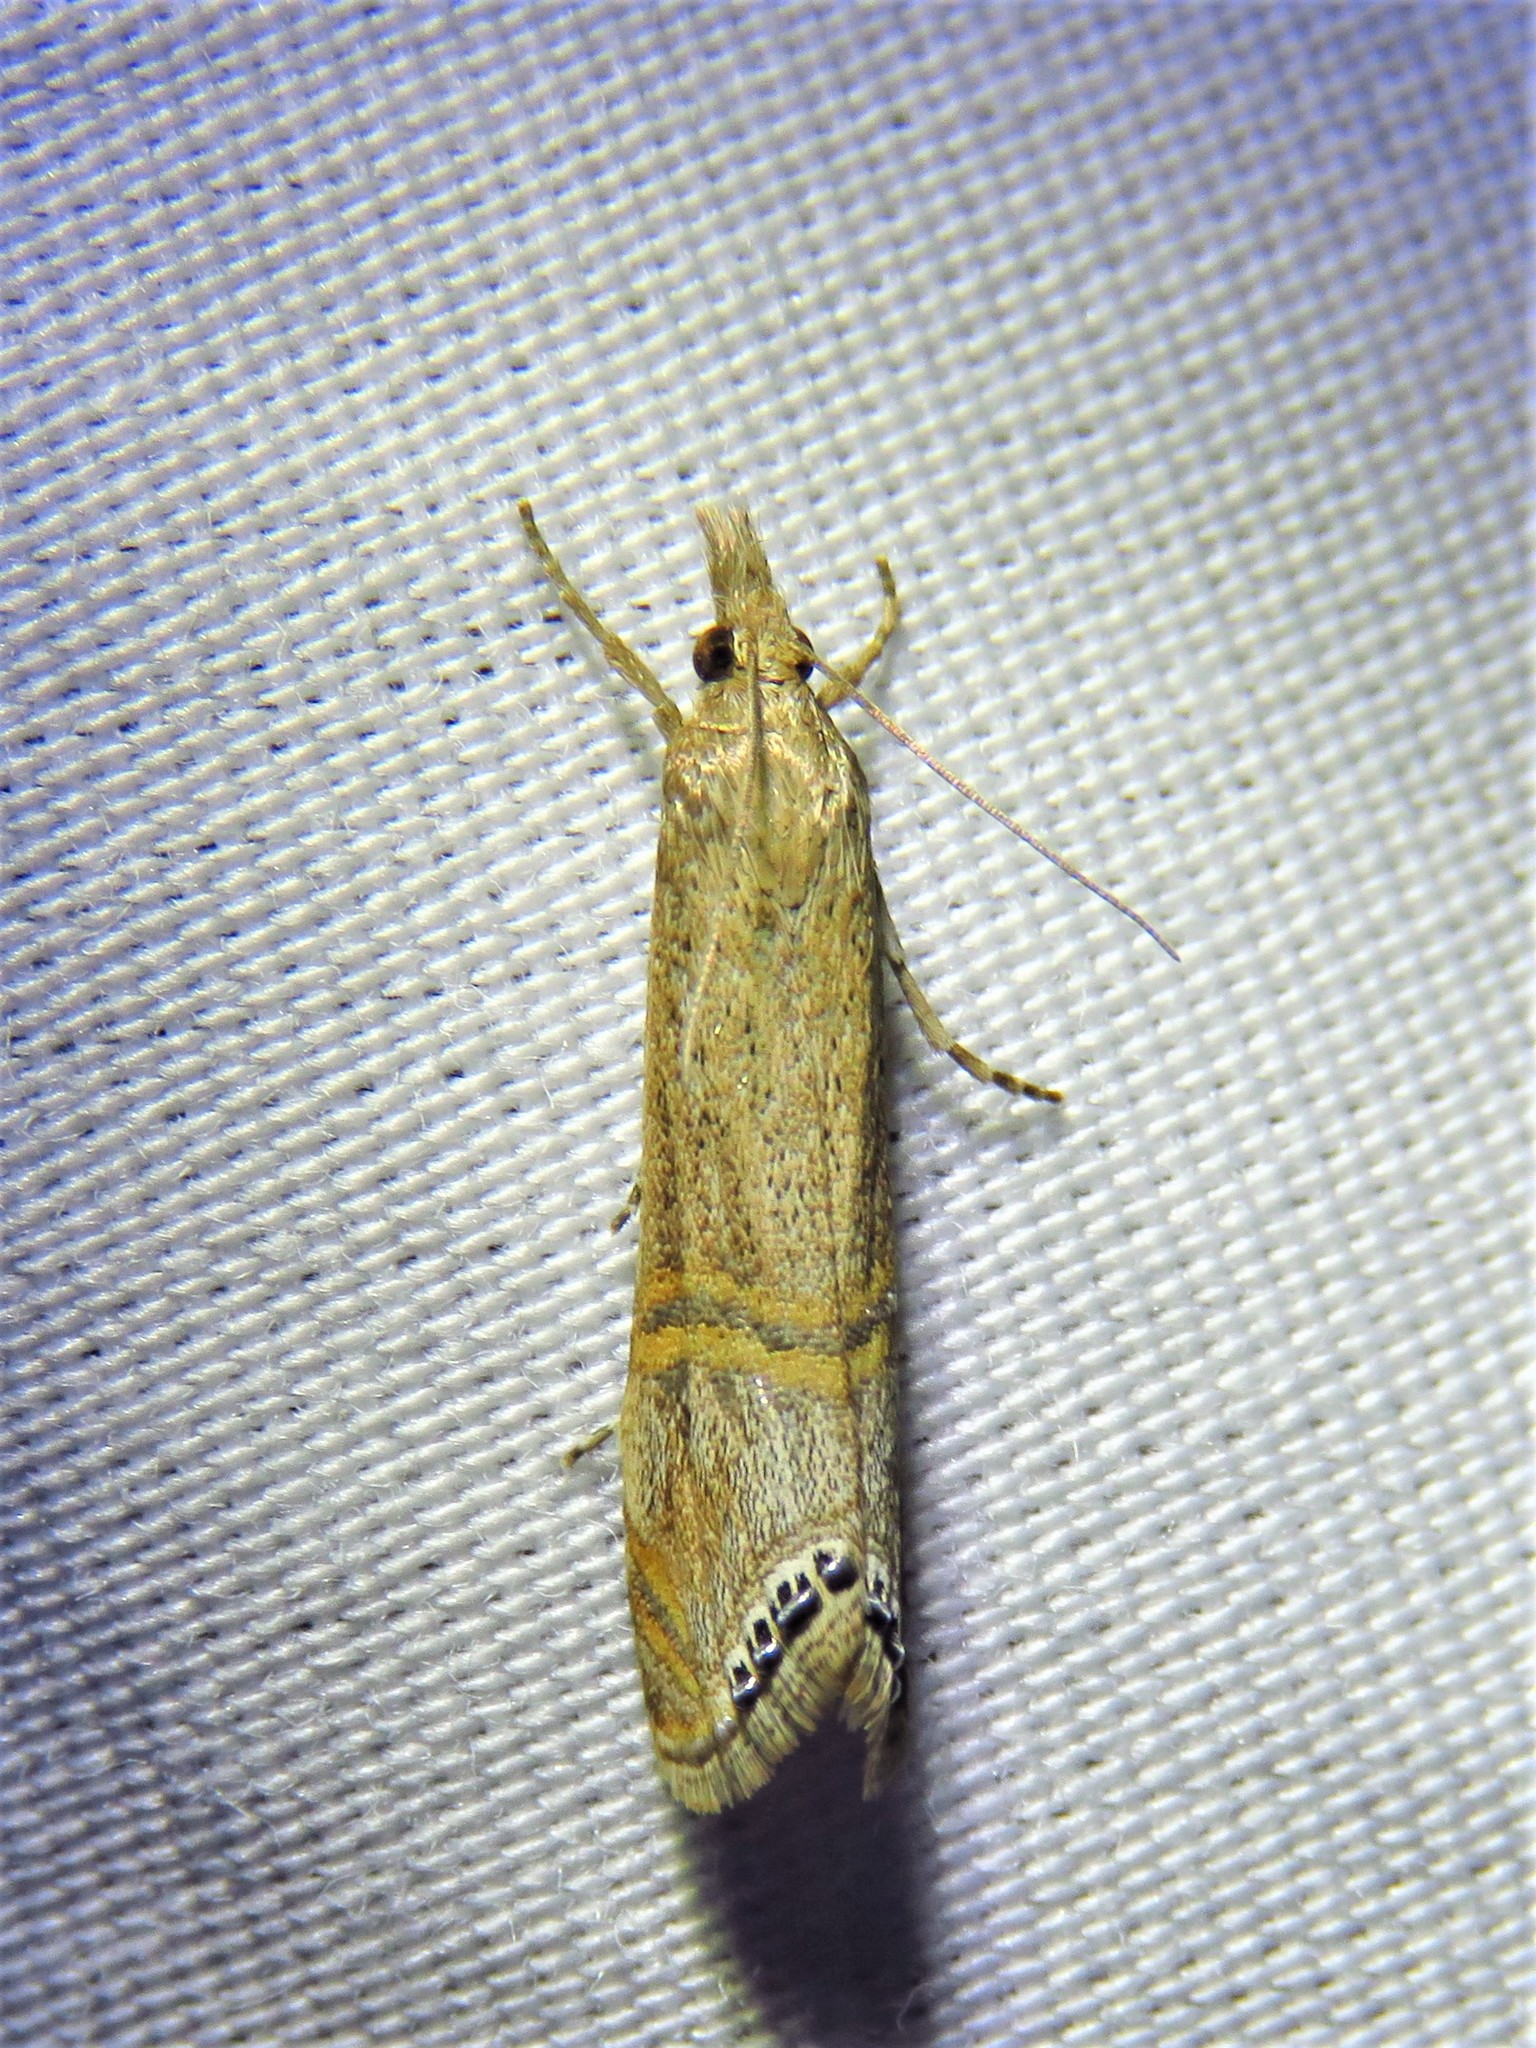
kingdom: Animalia
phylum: Arthropoda
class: Insecta
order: Lepidoptera
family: Crambidae
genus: Euchromius
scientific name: Euchromius ocellea
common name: Necklace veneer moth
